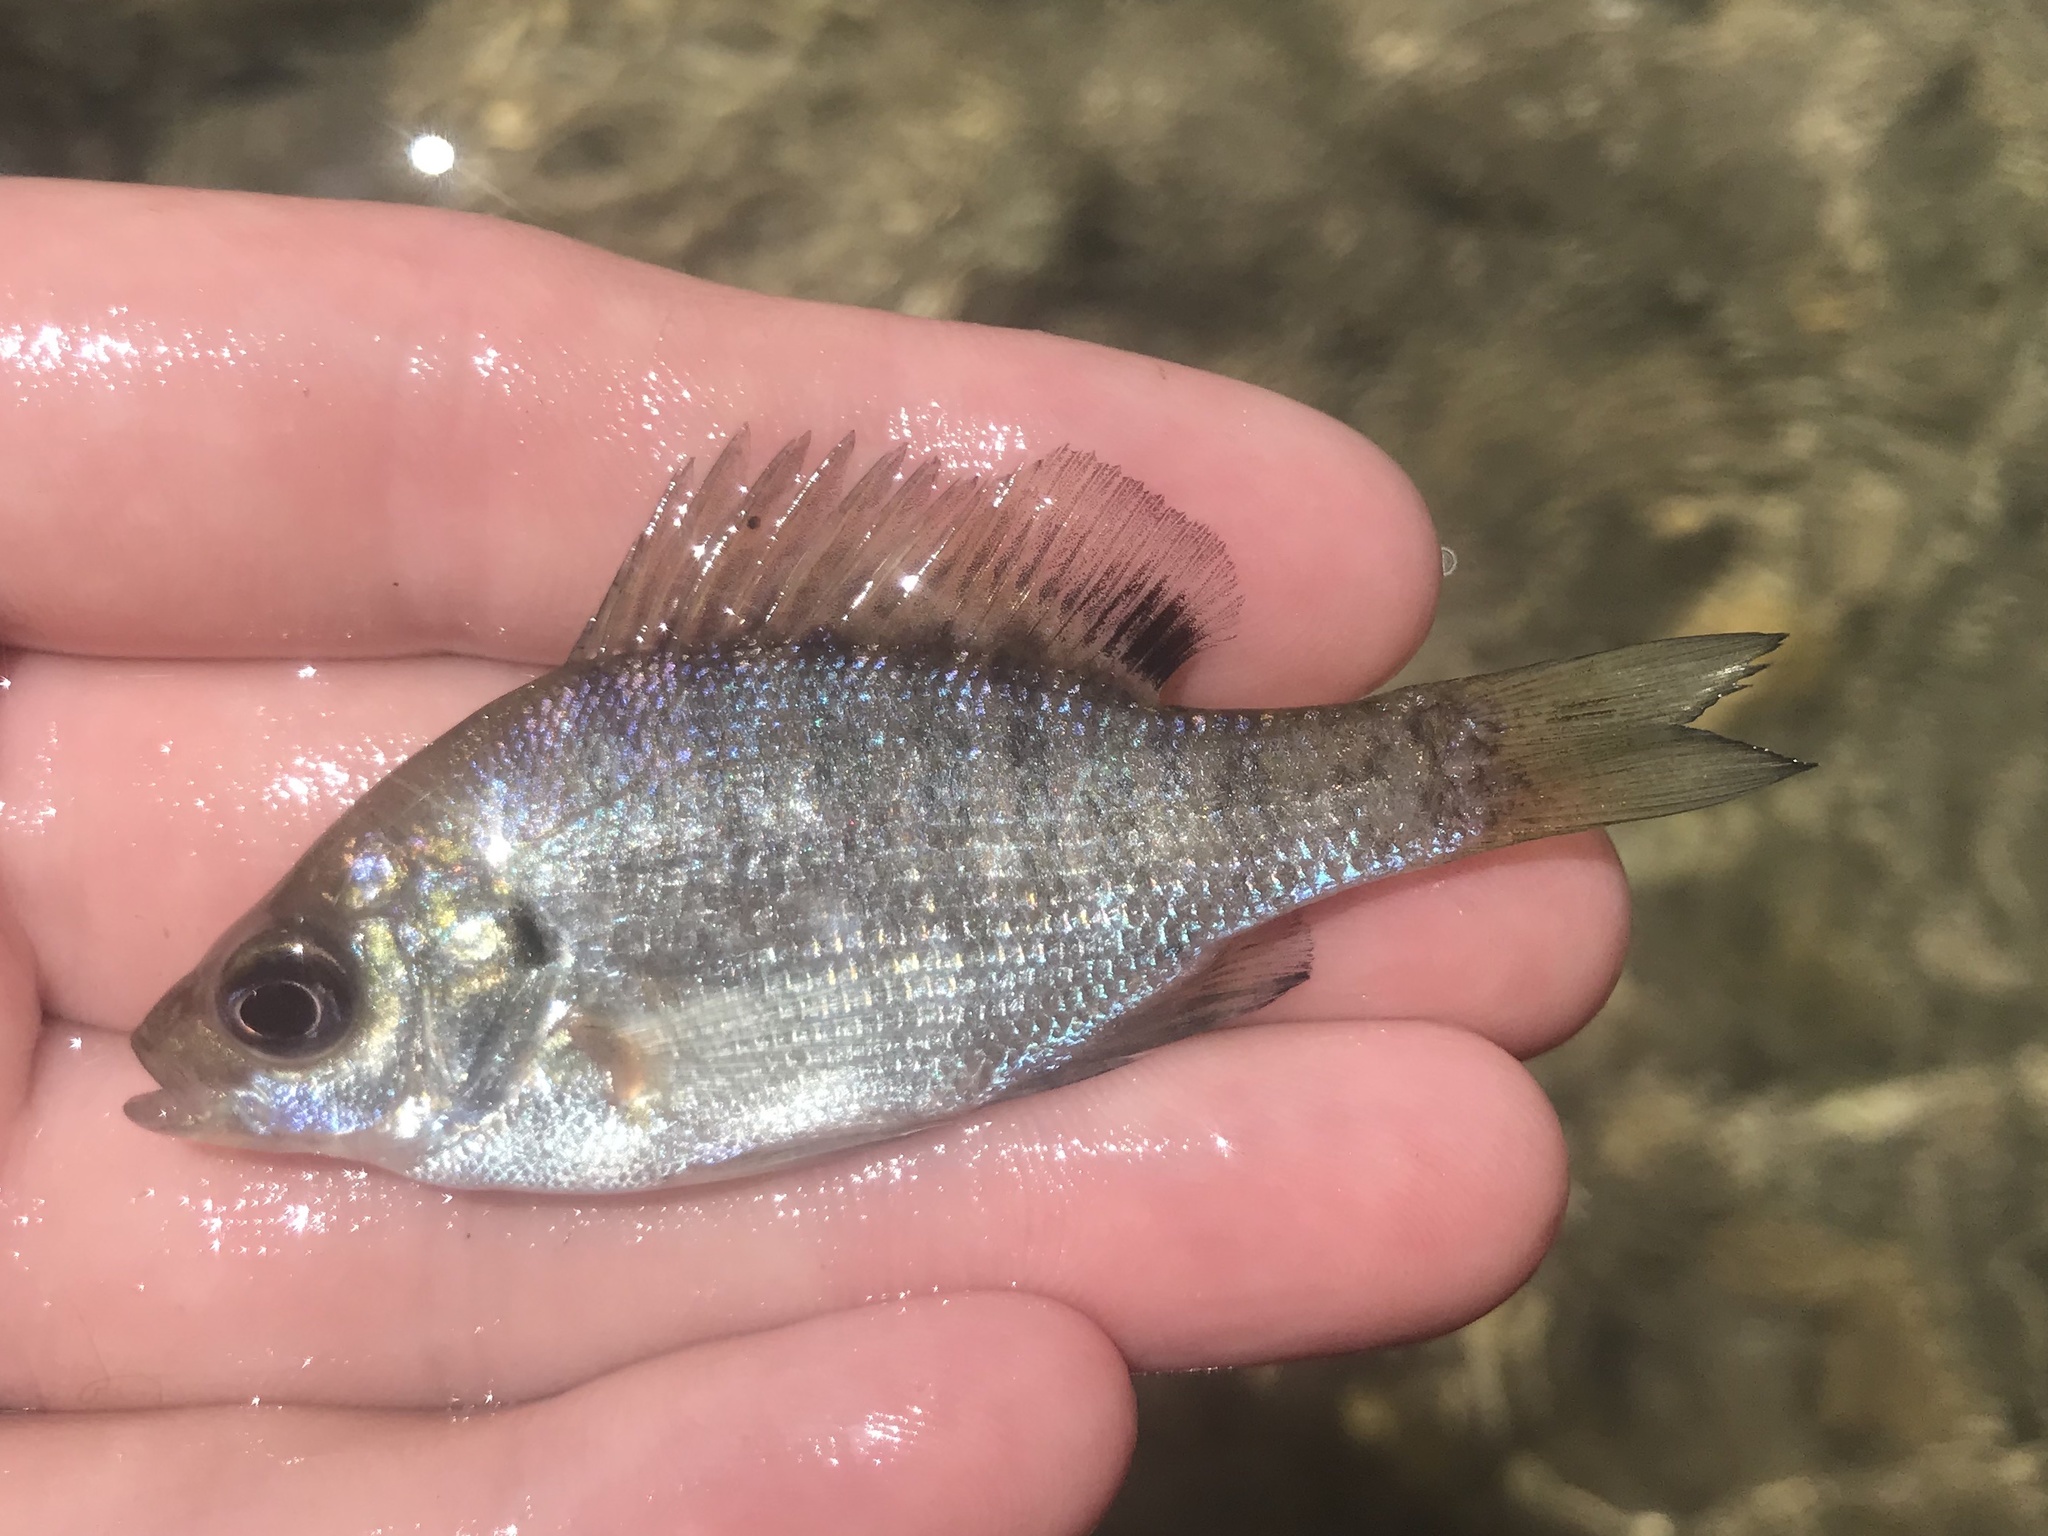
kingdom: Animalia
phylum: Chordata
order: Perciformes
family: Centrarchidae
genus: Lepomis
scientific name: Lepomis macrochirus
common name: Bluegill
